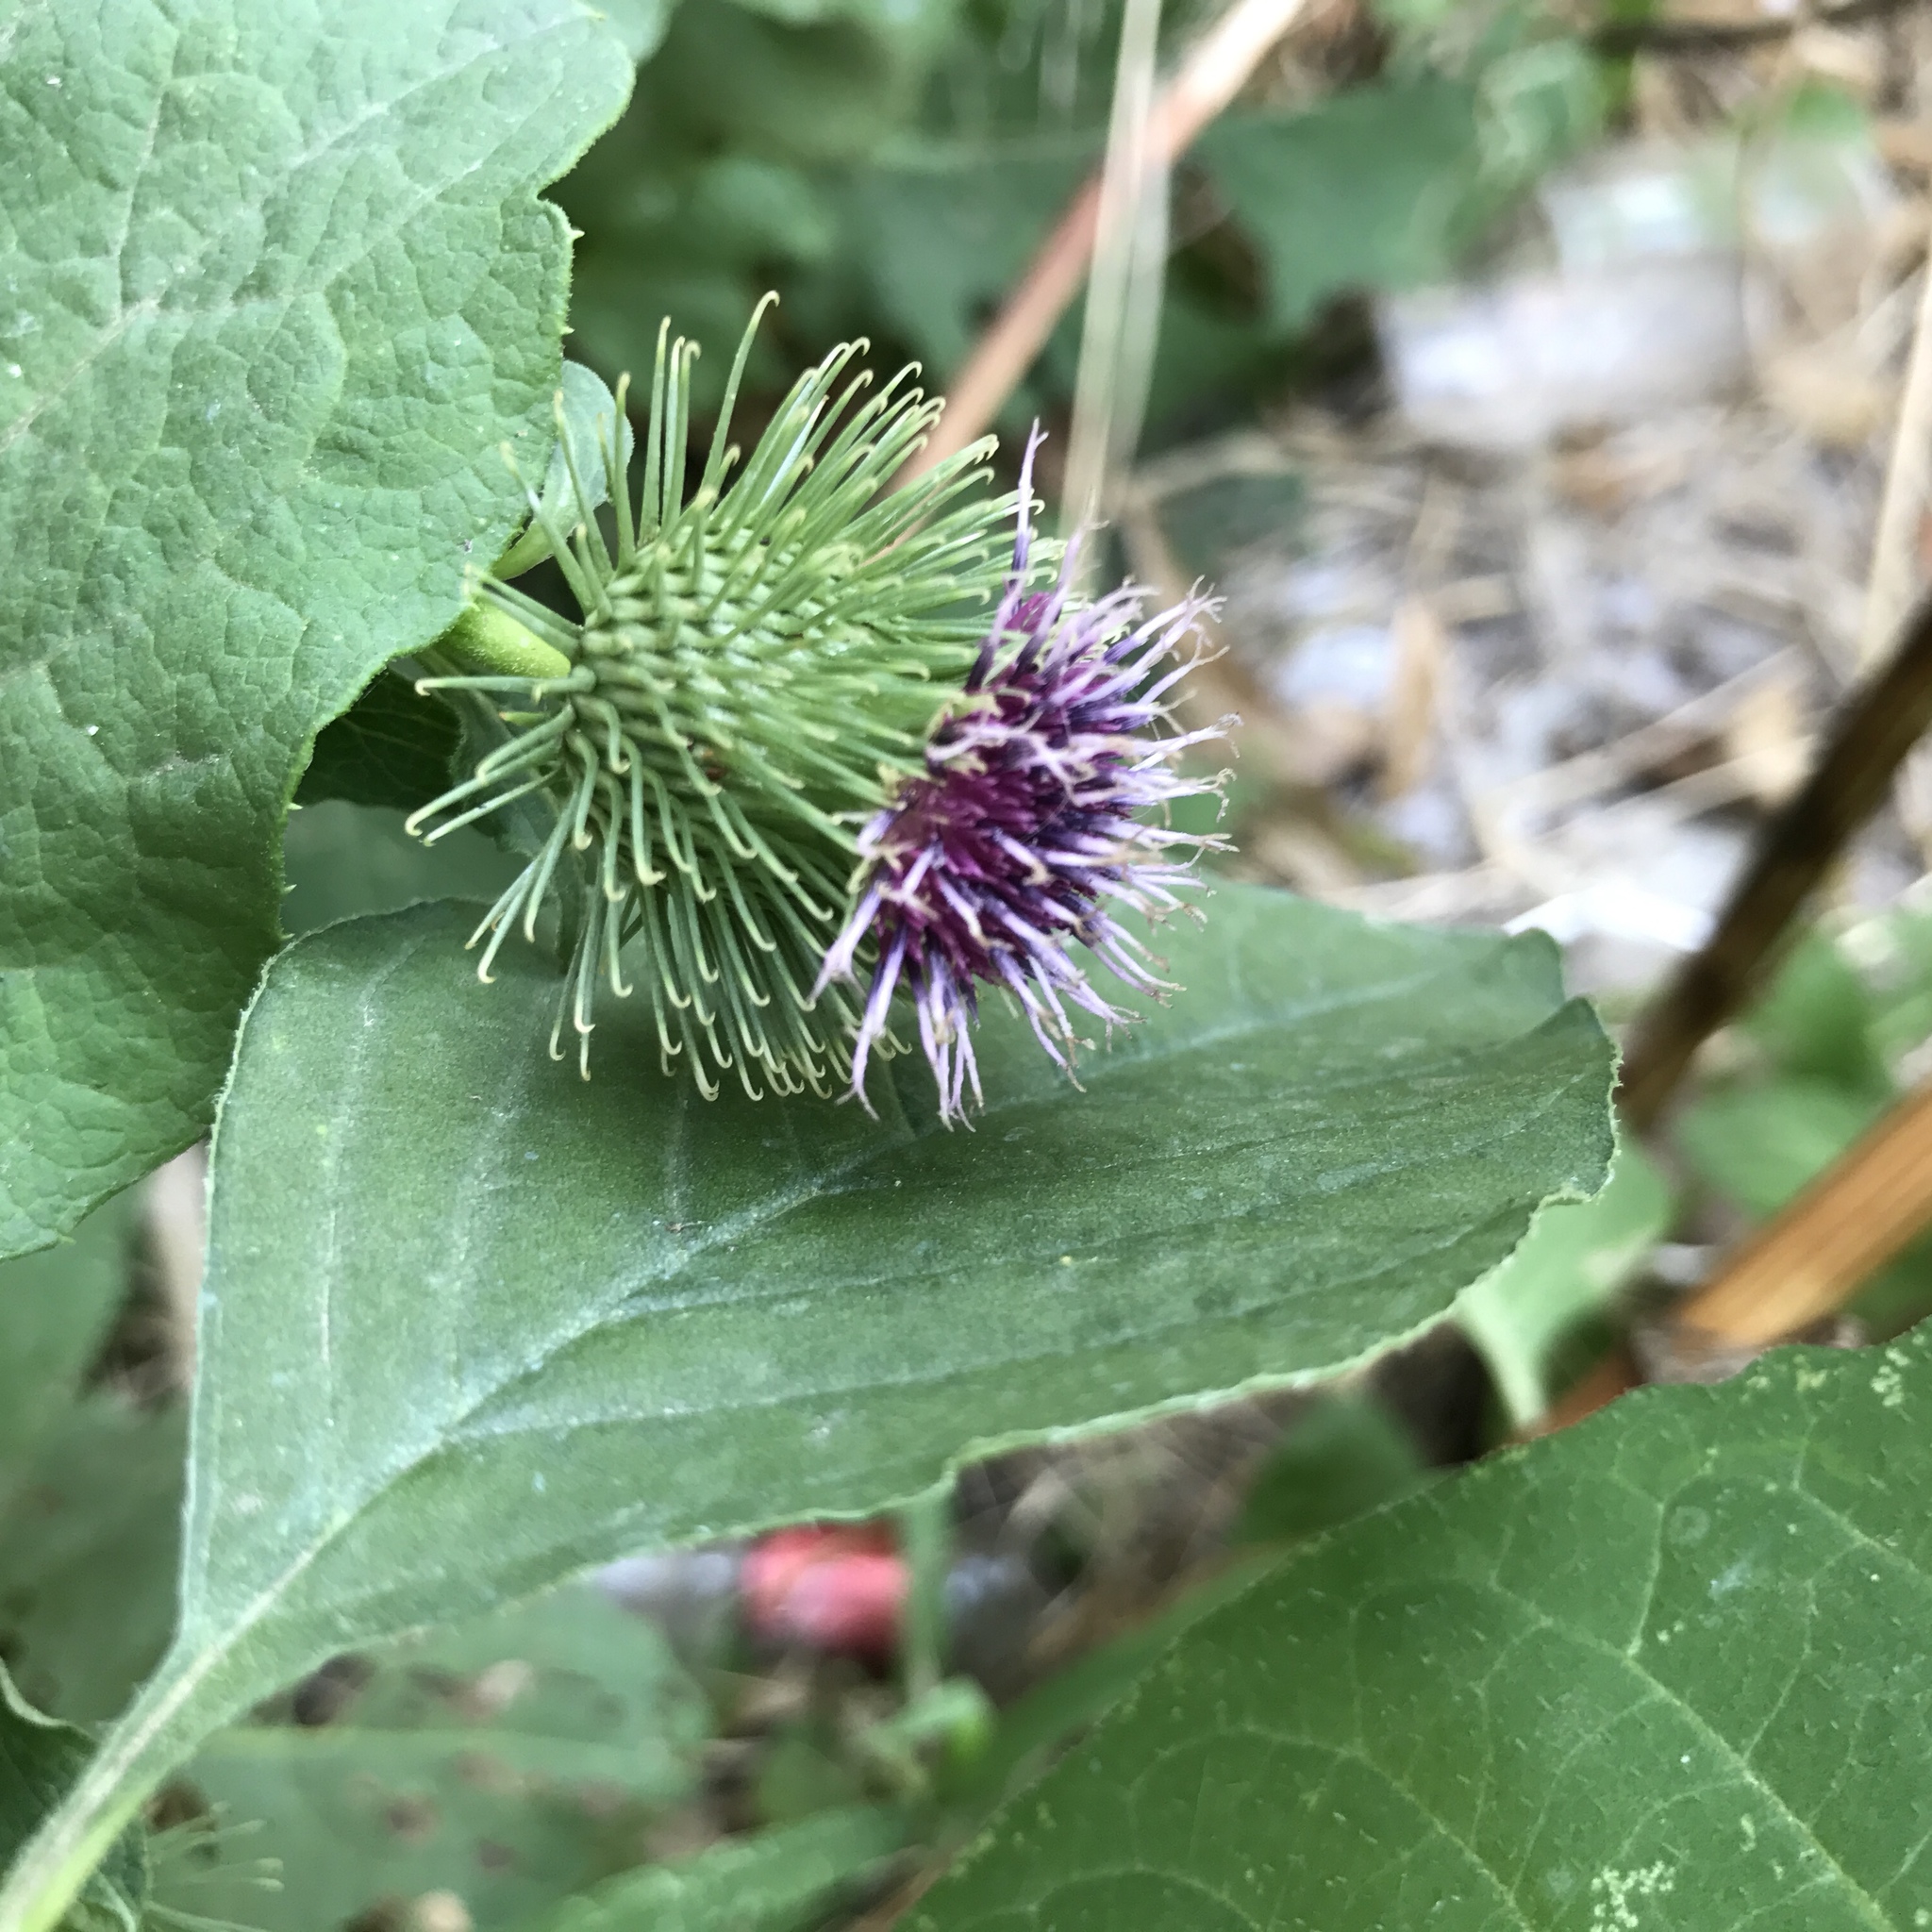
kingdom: Plantae
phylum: Tracheophyta
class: Magnoliopsida
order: Asterales
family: Asteraceae
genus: Arctium
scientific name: Arctium lappa
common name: Greater burdock
